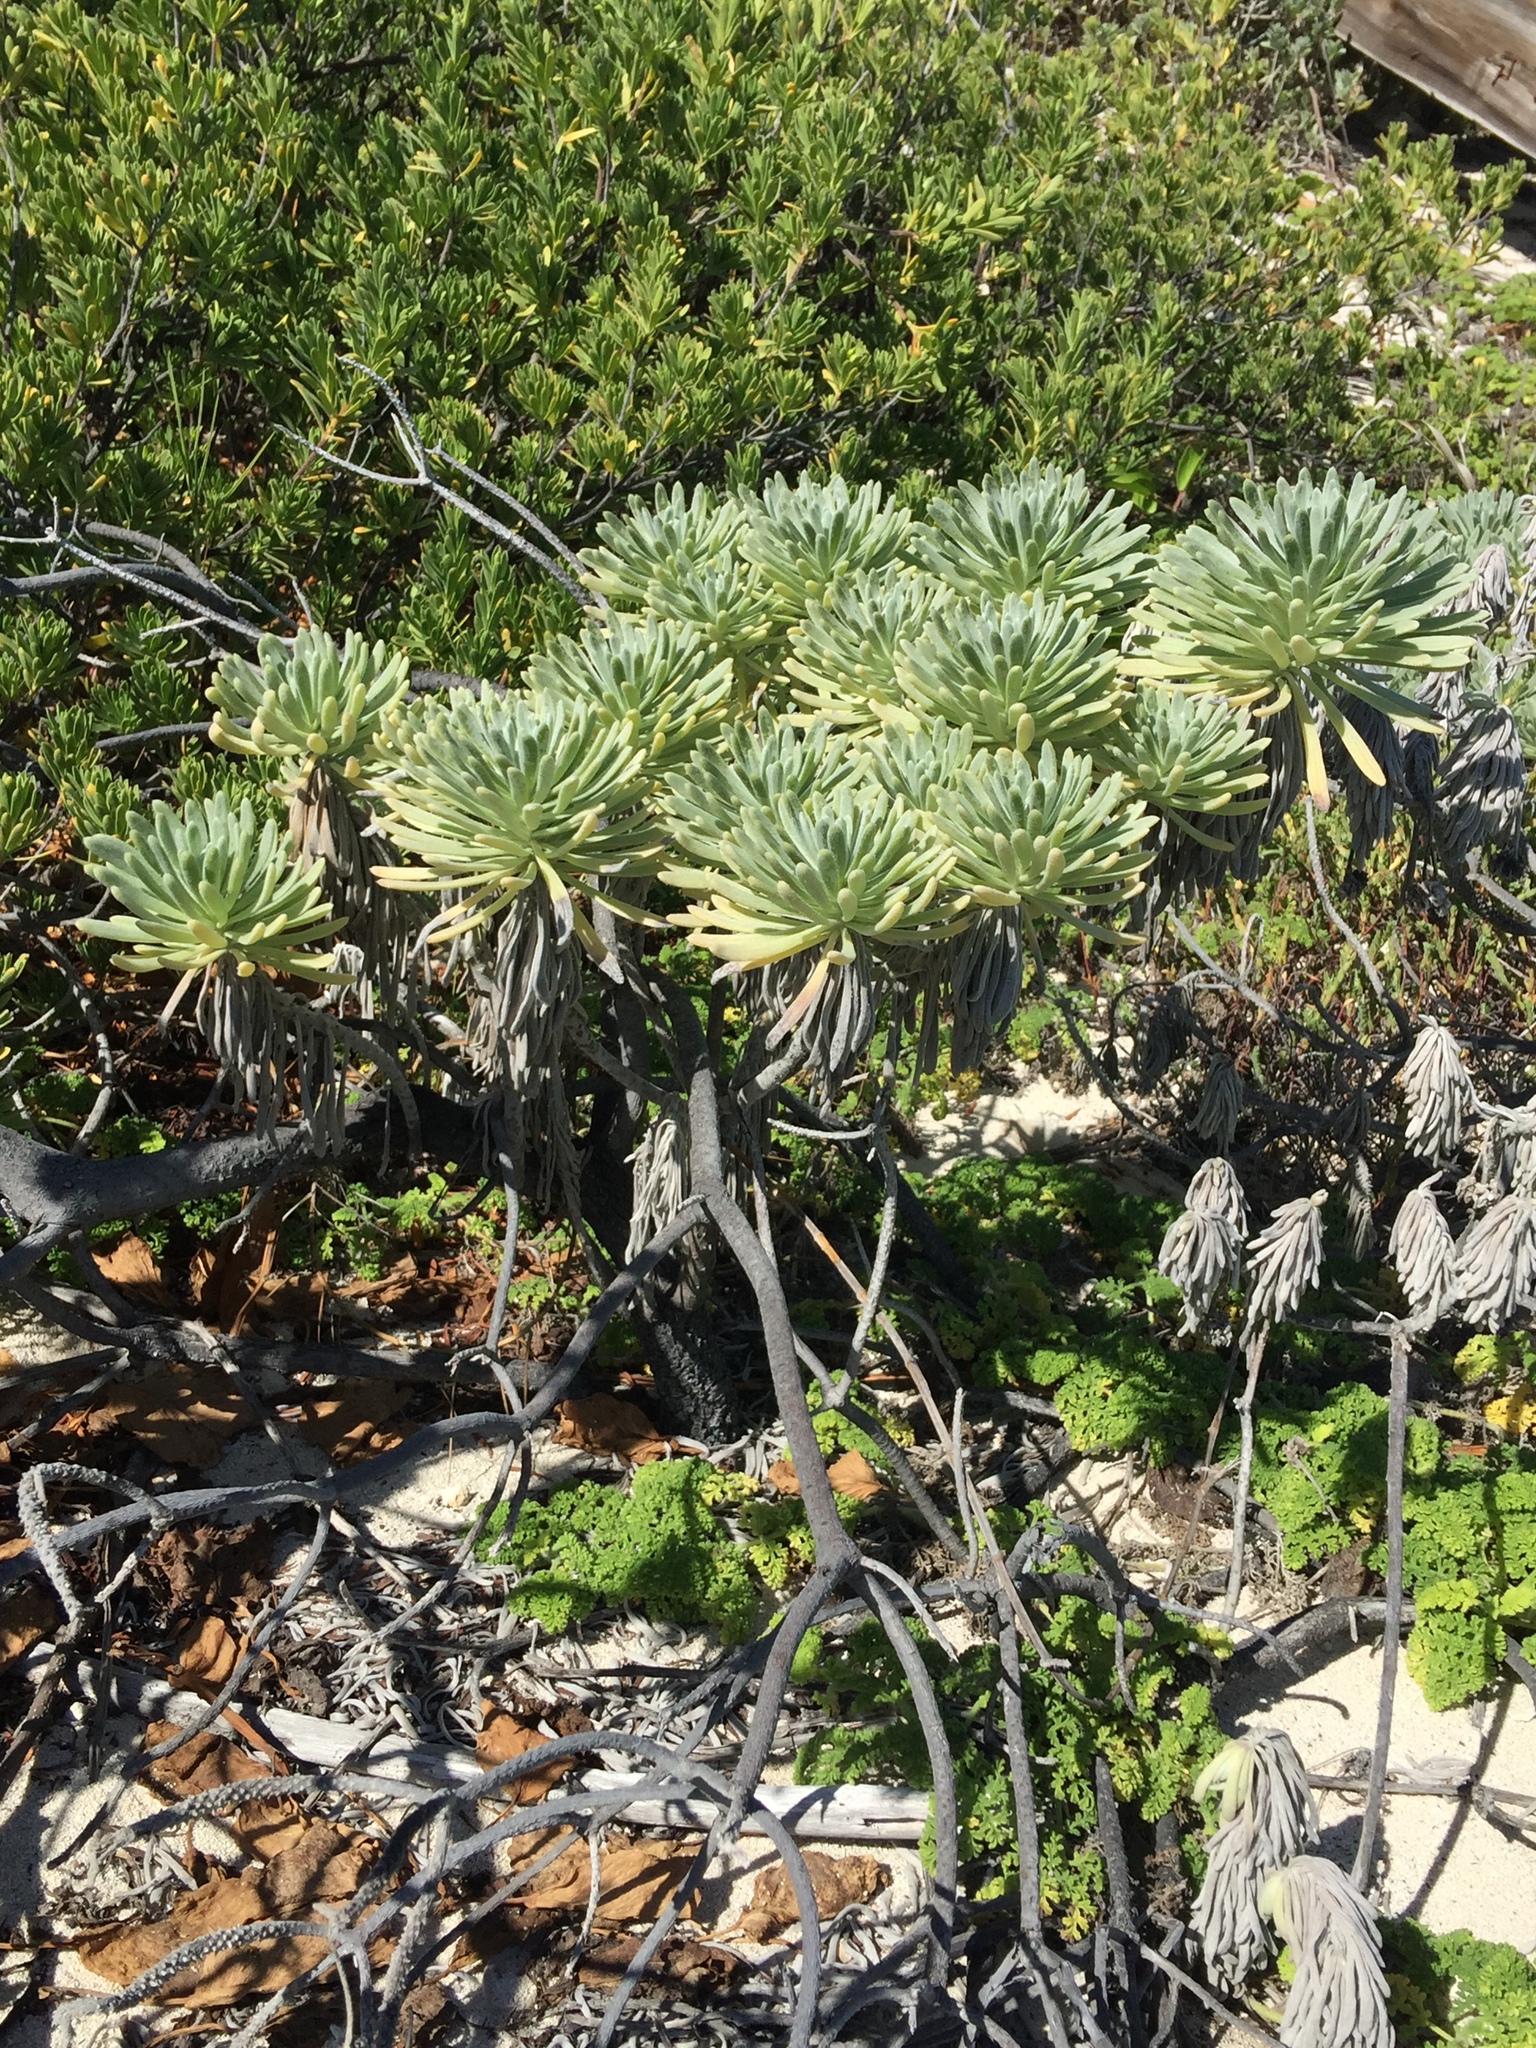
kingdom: Plantae
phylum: Tracheophyta
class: Magnoliopsida
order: Boraginales
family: Heliotropiaceae
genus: Tournefortia
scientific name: Tournefortia gnaphalodes
